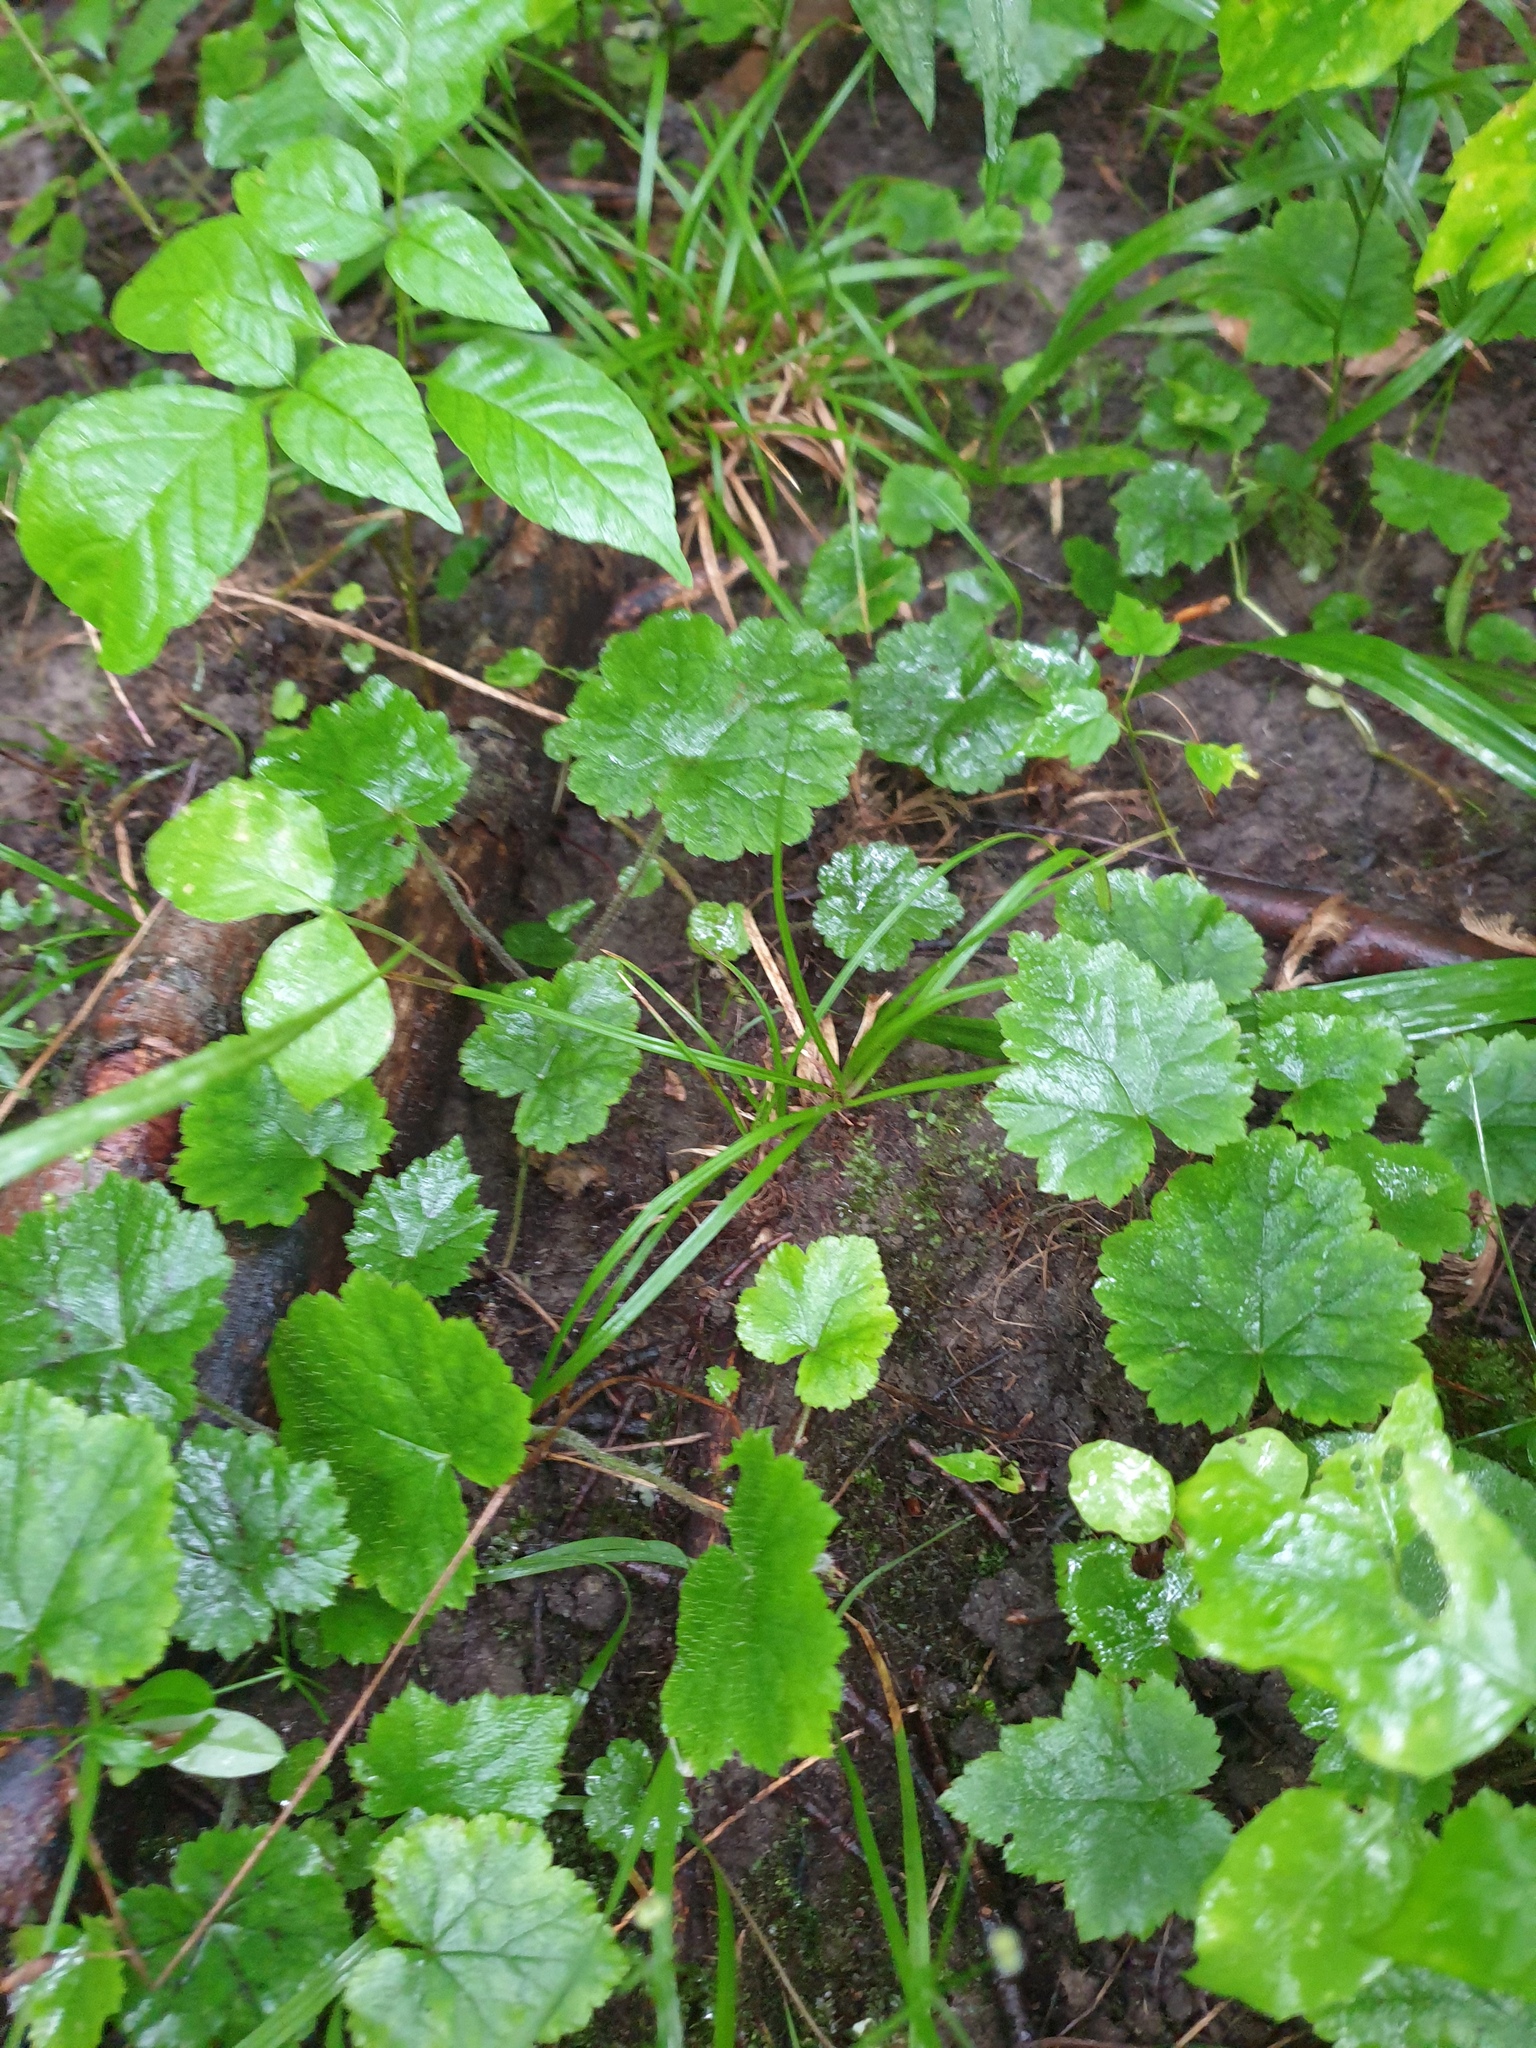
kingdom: Plantae
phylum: Tracheophyta
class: Magnoliopsida
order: Saxifragales
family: Saxifragaceae
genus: Tiarella
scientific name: Tiarella stolonifera
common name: Stoloniferous foamflower
